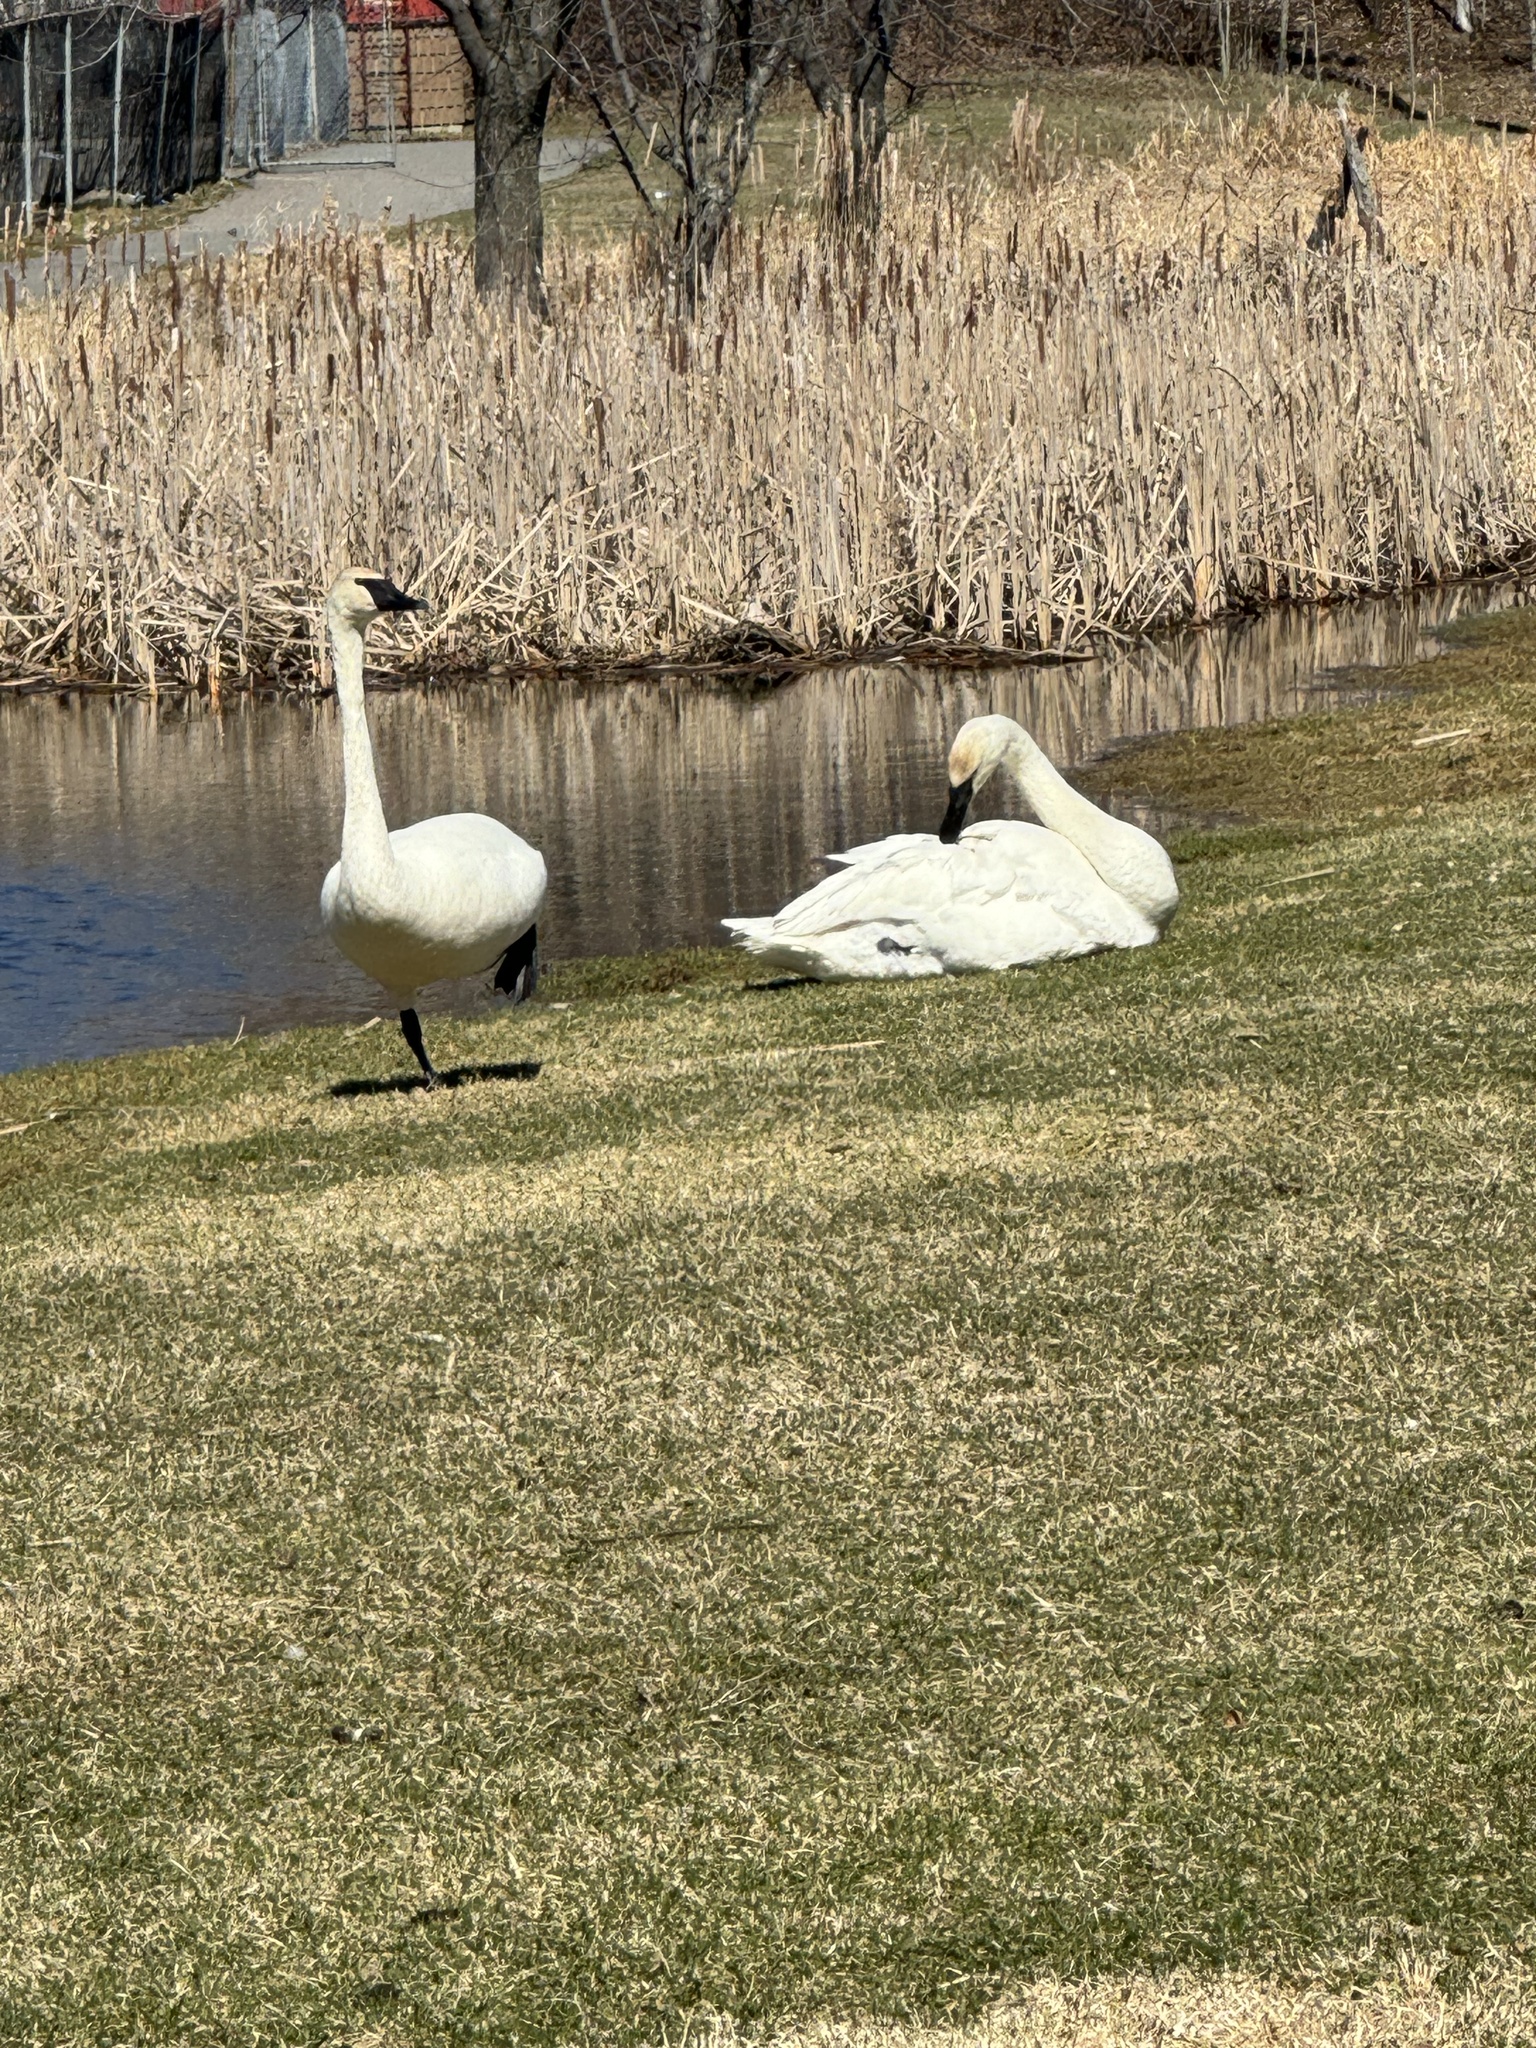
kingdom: Animalia
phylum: Chordata
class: Aves
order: Anseriformes
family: Anatidae
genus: Cygnus
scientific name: Cygnus buccinator
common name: Trumpeter swan
